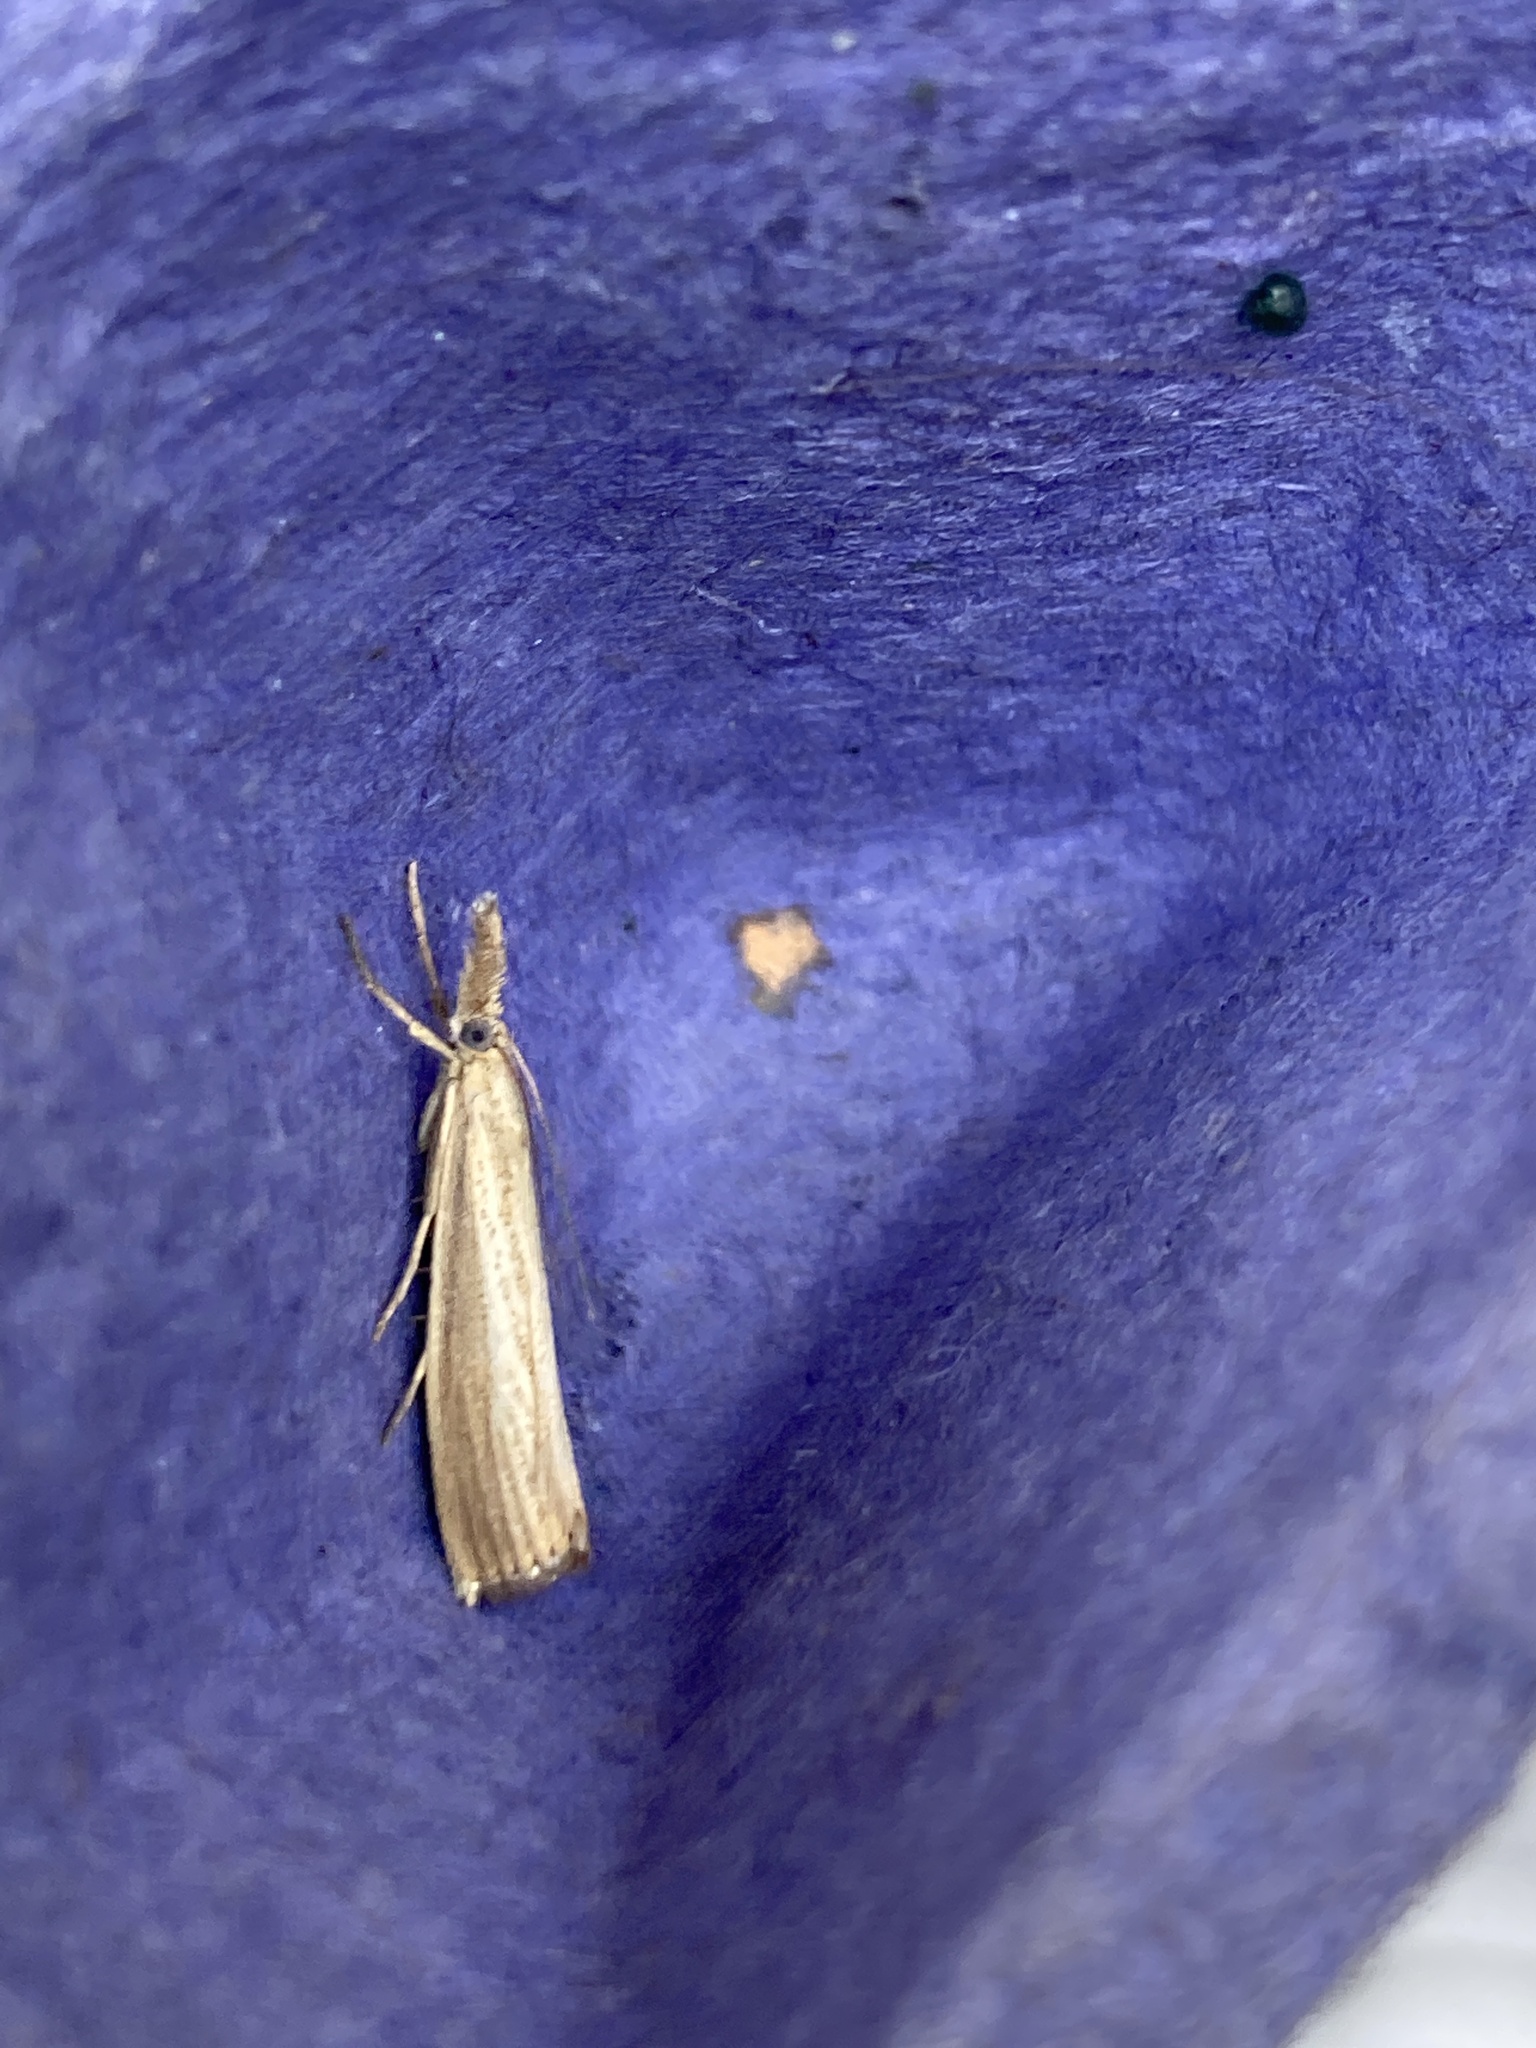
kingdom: Animalia
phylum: Arthropoda
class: Insecta
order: Lepidoptera
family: Crambidae
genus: Agriphila
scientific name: Agriphila straminella
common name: Straw grass-veneer
